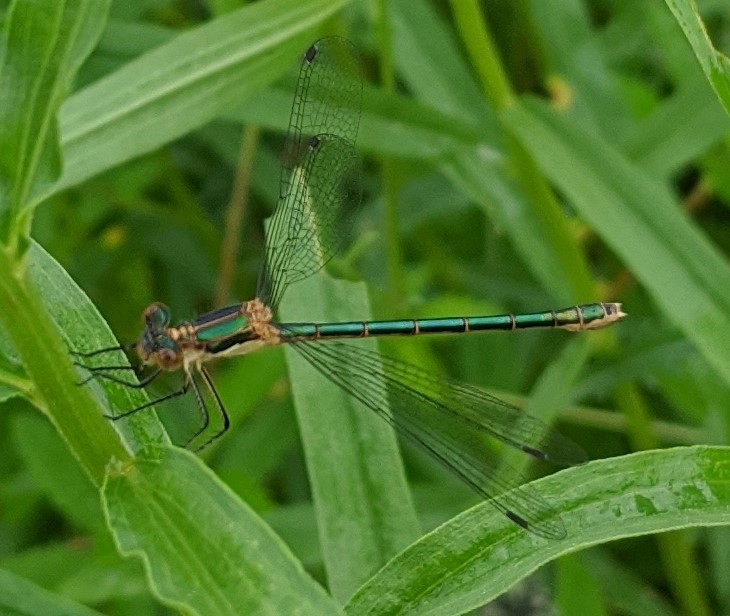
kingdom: Animalia
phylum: Arthropoda
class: Insecta
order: Odonata
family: Lestidae
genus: Lestes
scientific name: Lestes dryas
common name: Scarce emerald damselfly
